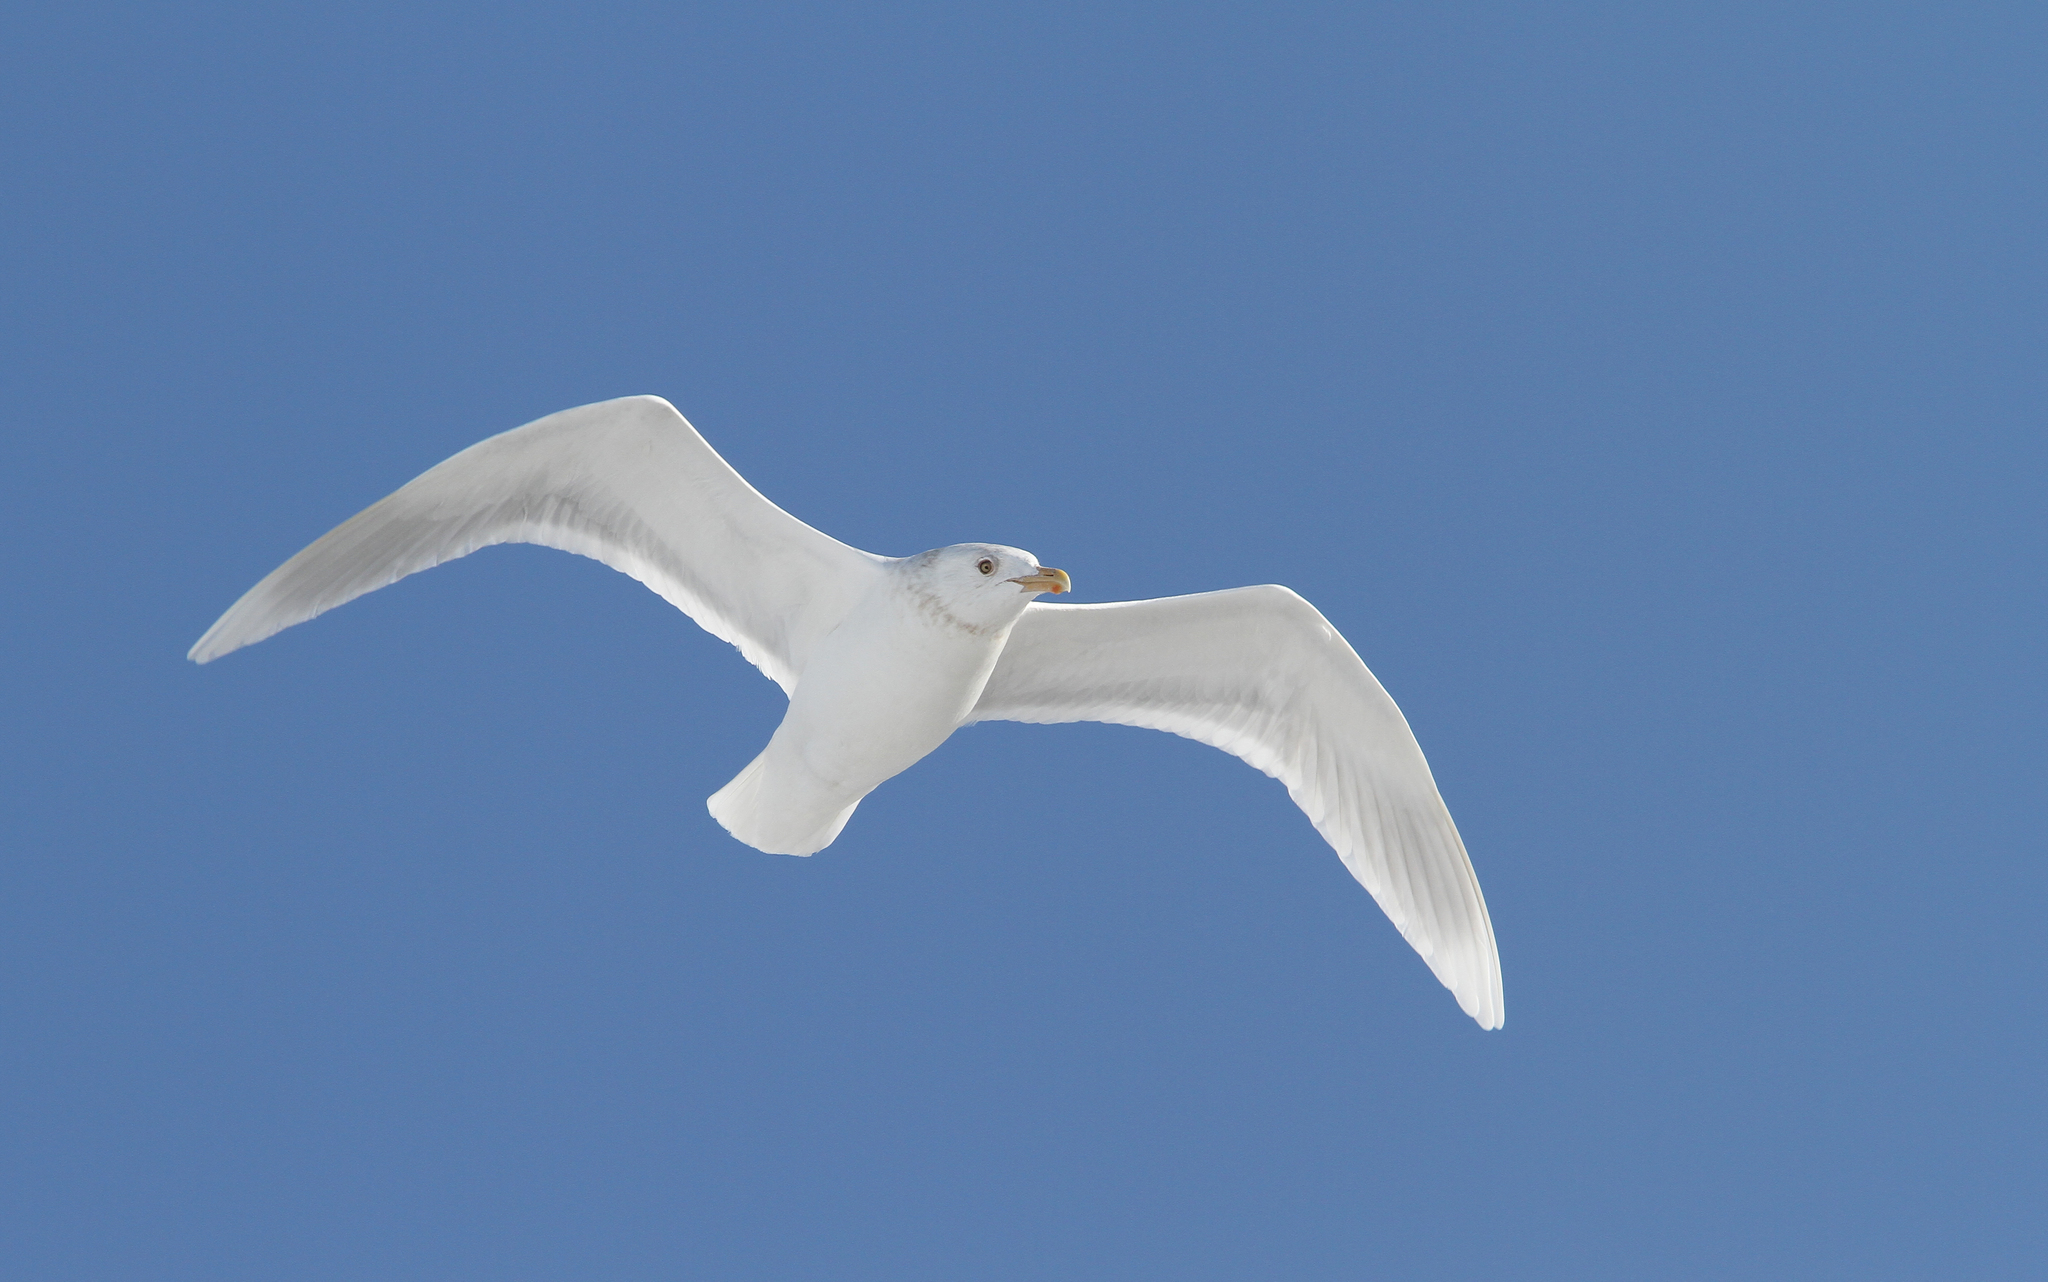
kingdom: Animalia
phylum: Chordata
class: Aves
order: Charadriiformes
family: Laridae
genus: Larus
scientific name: Larus hyperboreus
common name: Glaucous gull
